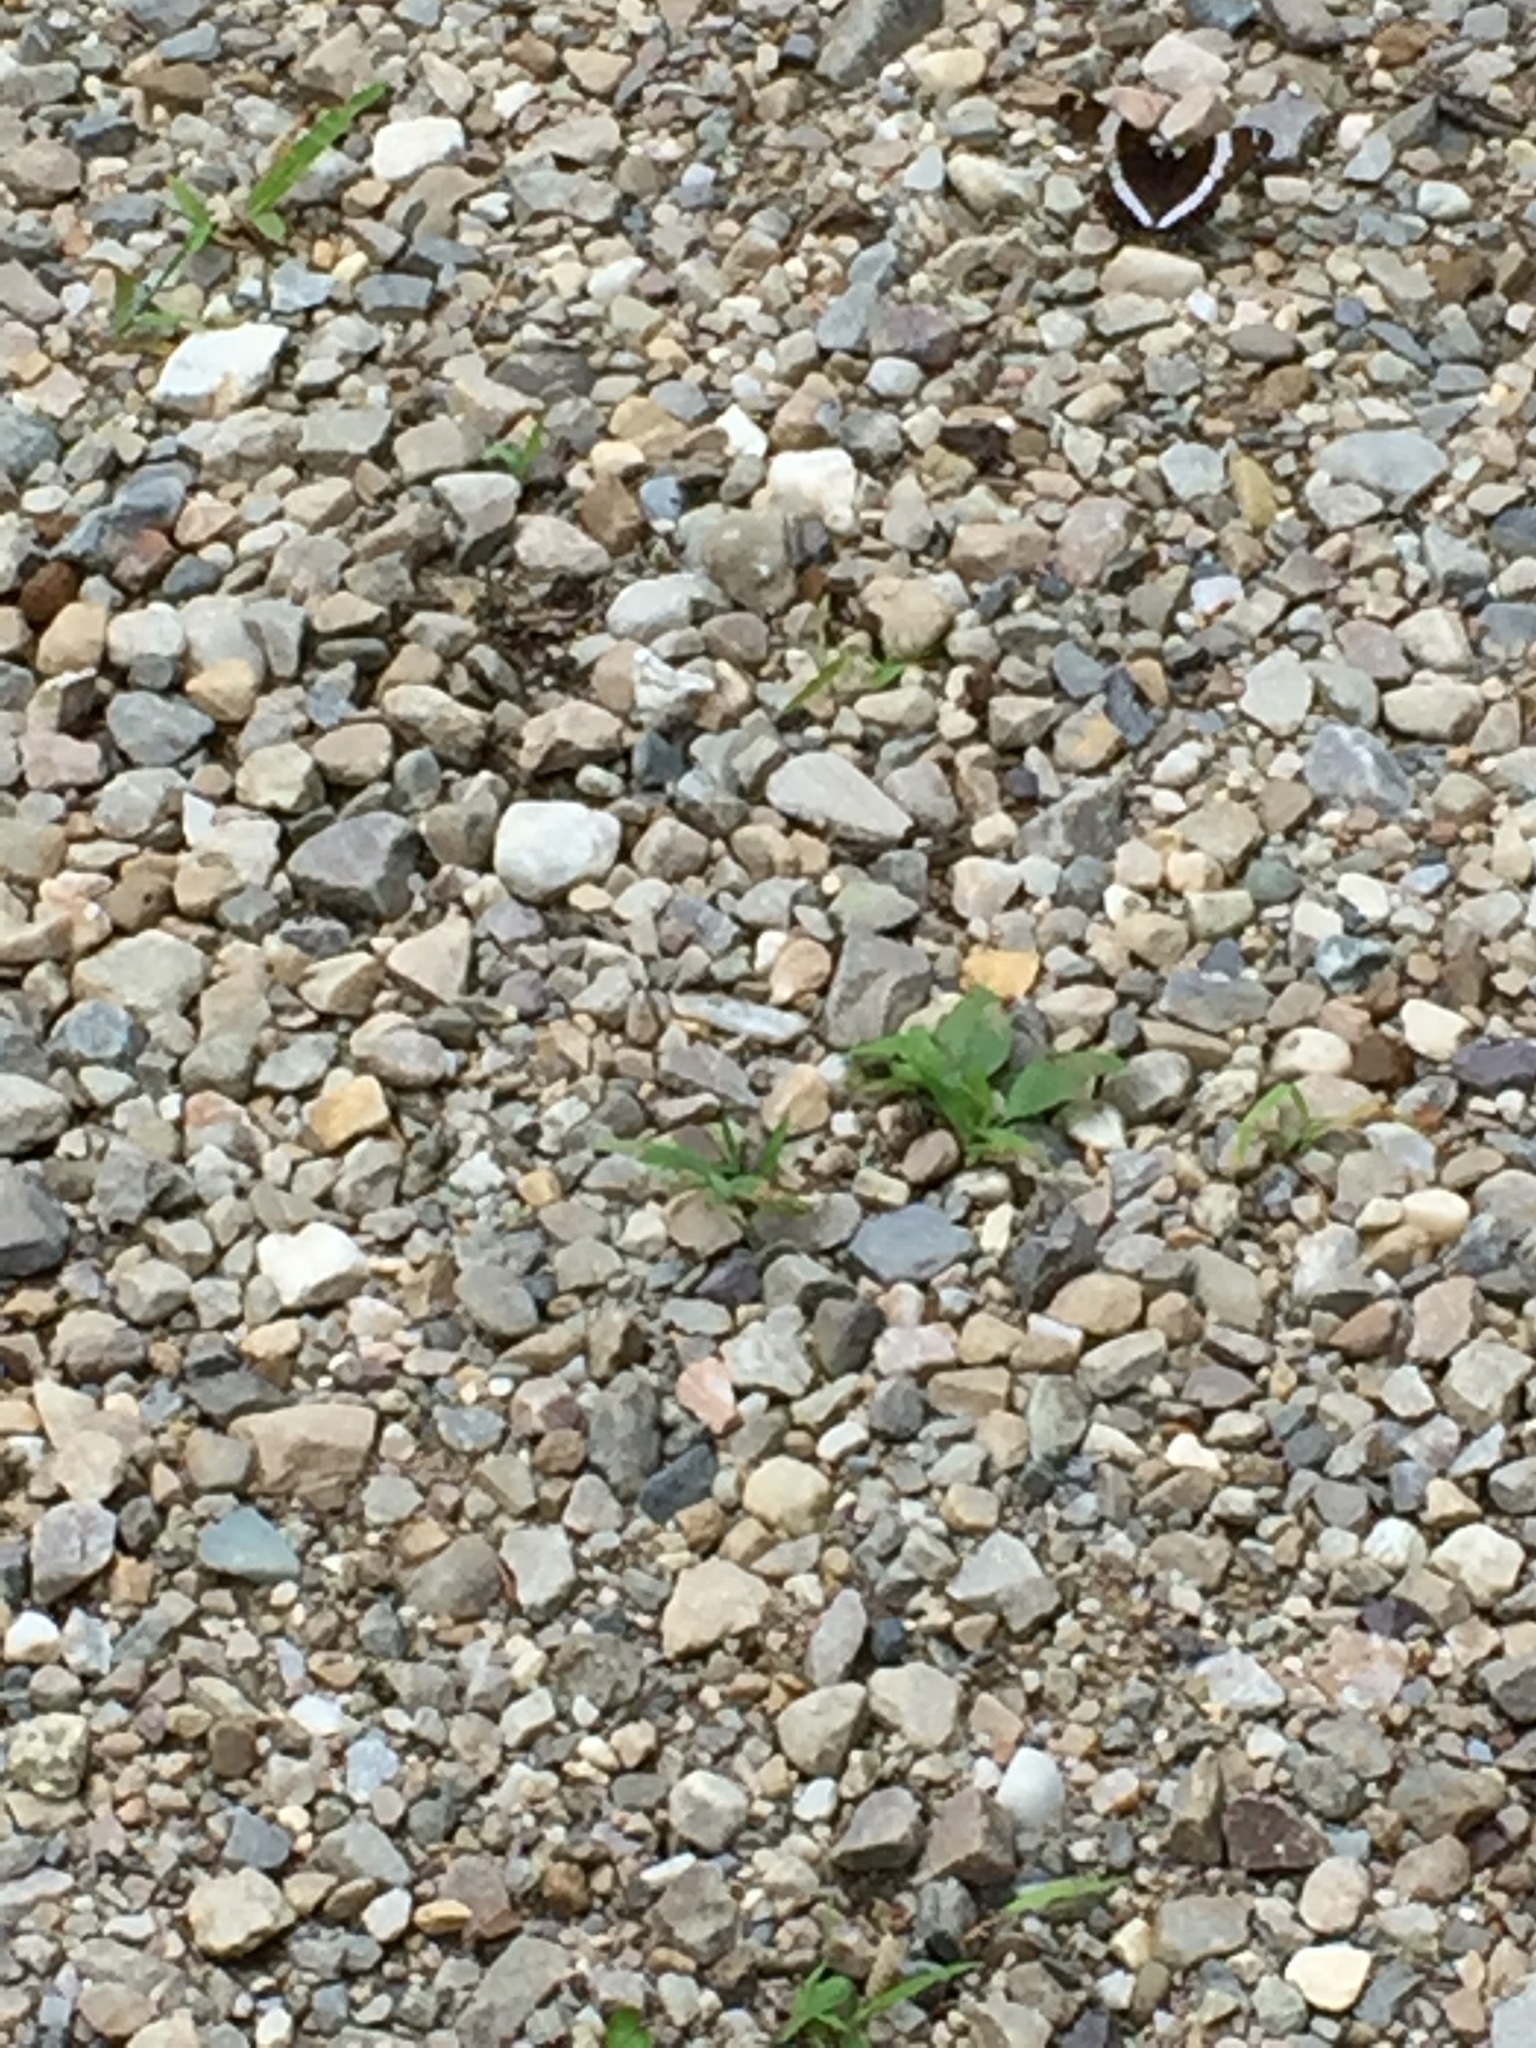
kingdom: Animalia
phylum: Arthropoda
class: Insecta
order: Lepidoptera
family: Nymphalidae
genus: Limenitis
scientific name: Limenitis arthemis
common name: Red-spotted admiral
